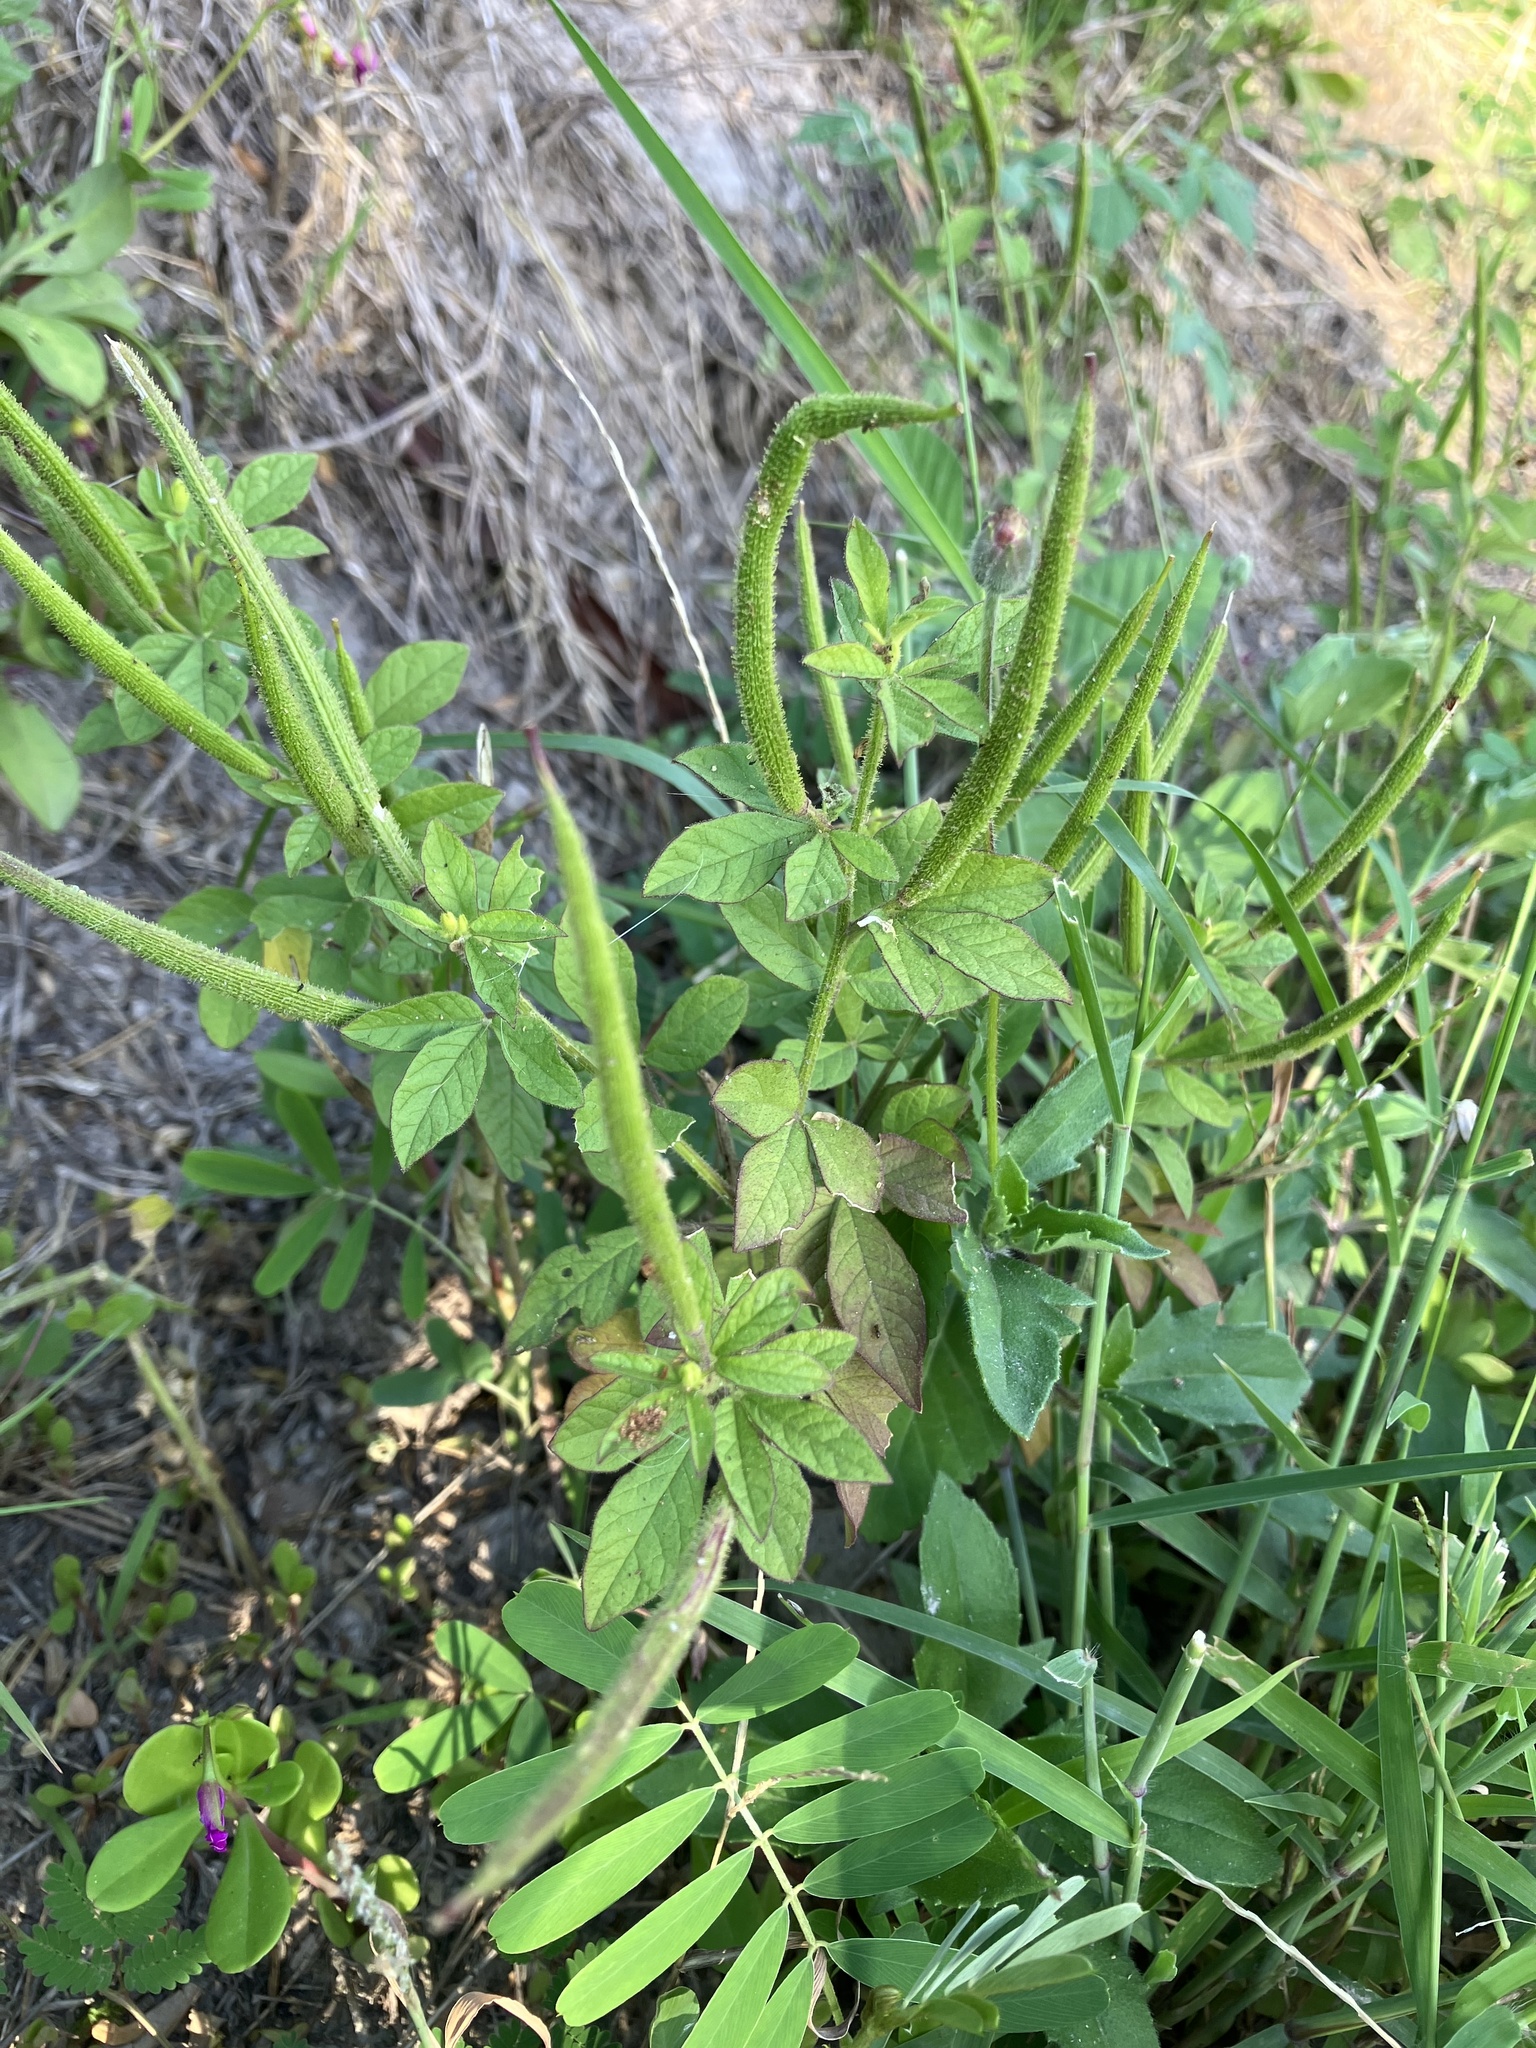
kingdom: Plantae
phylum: Tracheophyta
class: Magnoliopsida
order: Brassicales
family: Cleomaceae
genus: Arivela
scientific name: Arivela viscosa
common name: Asian spiderflower
